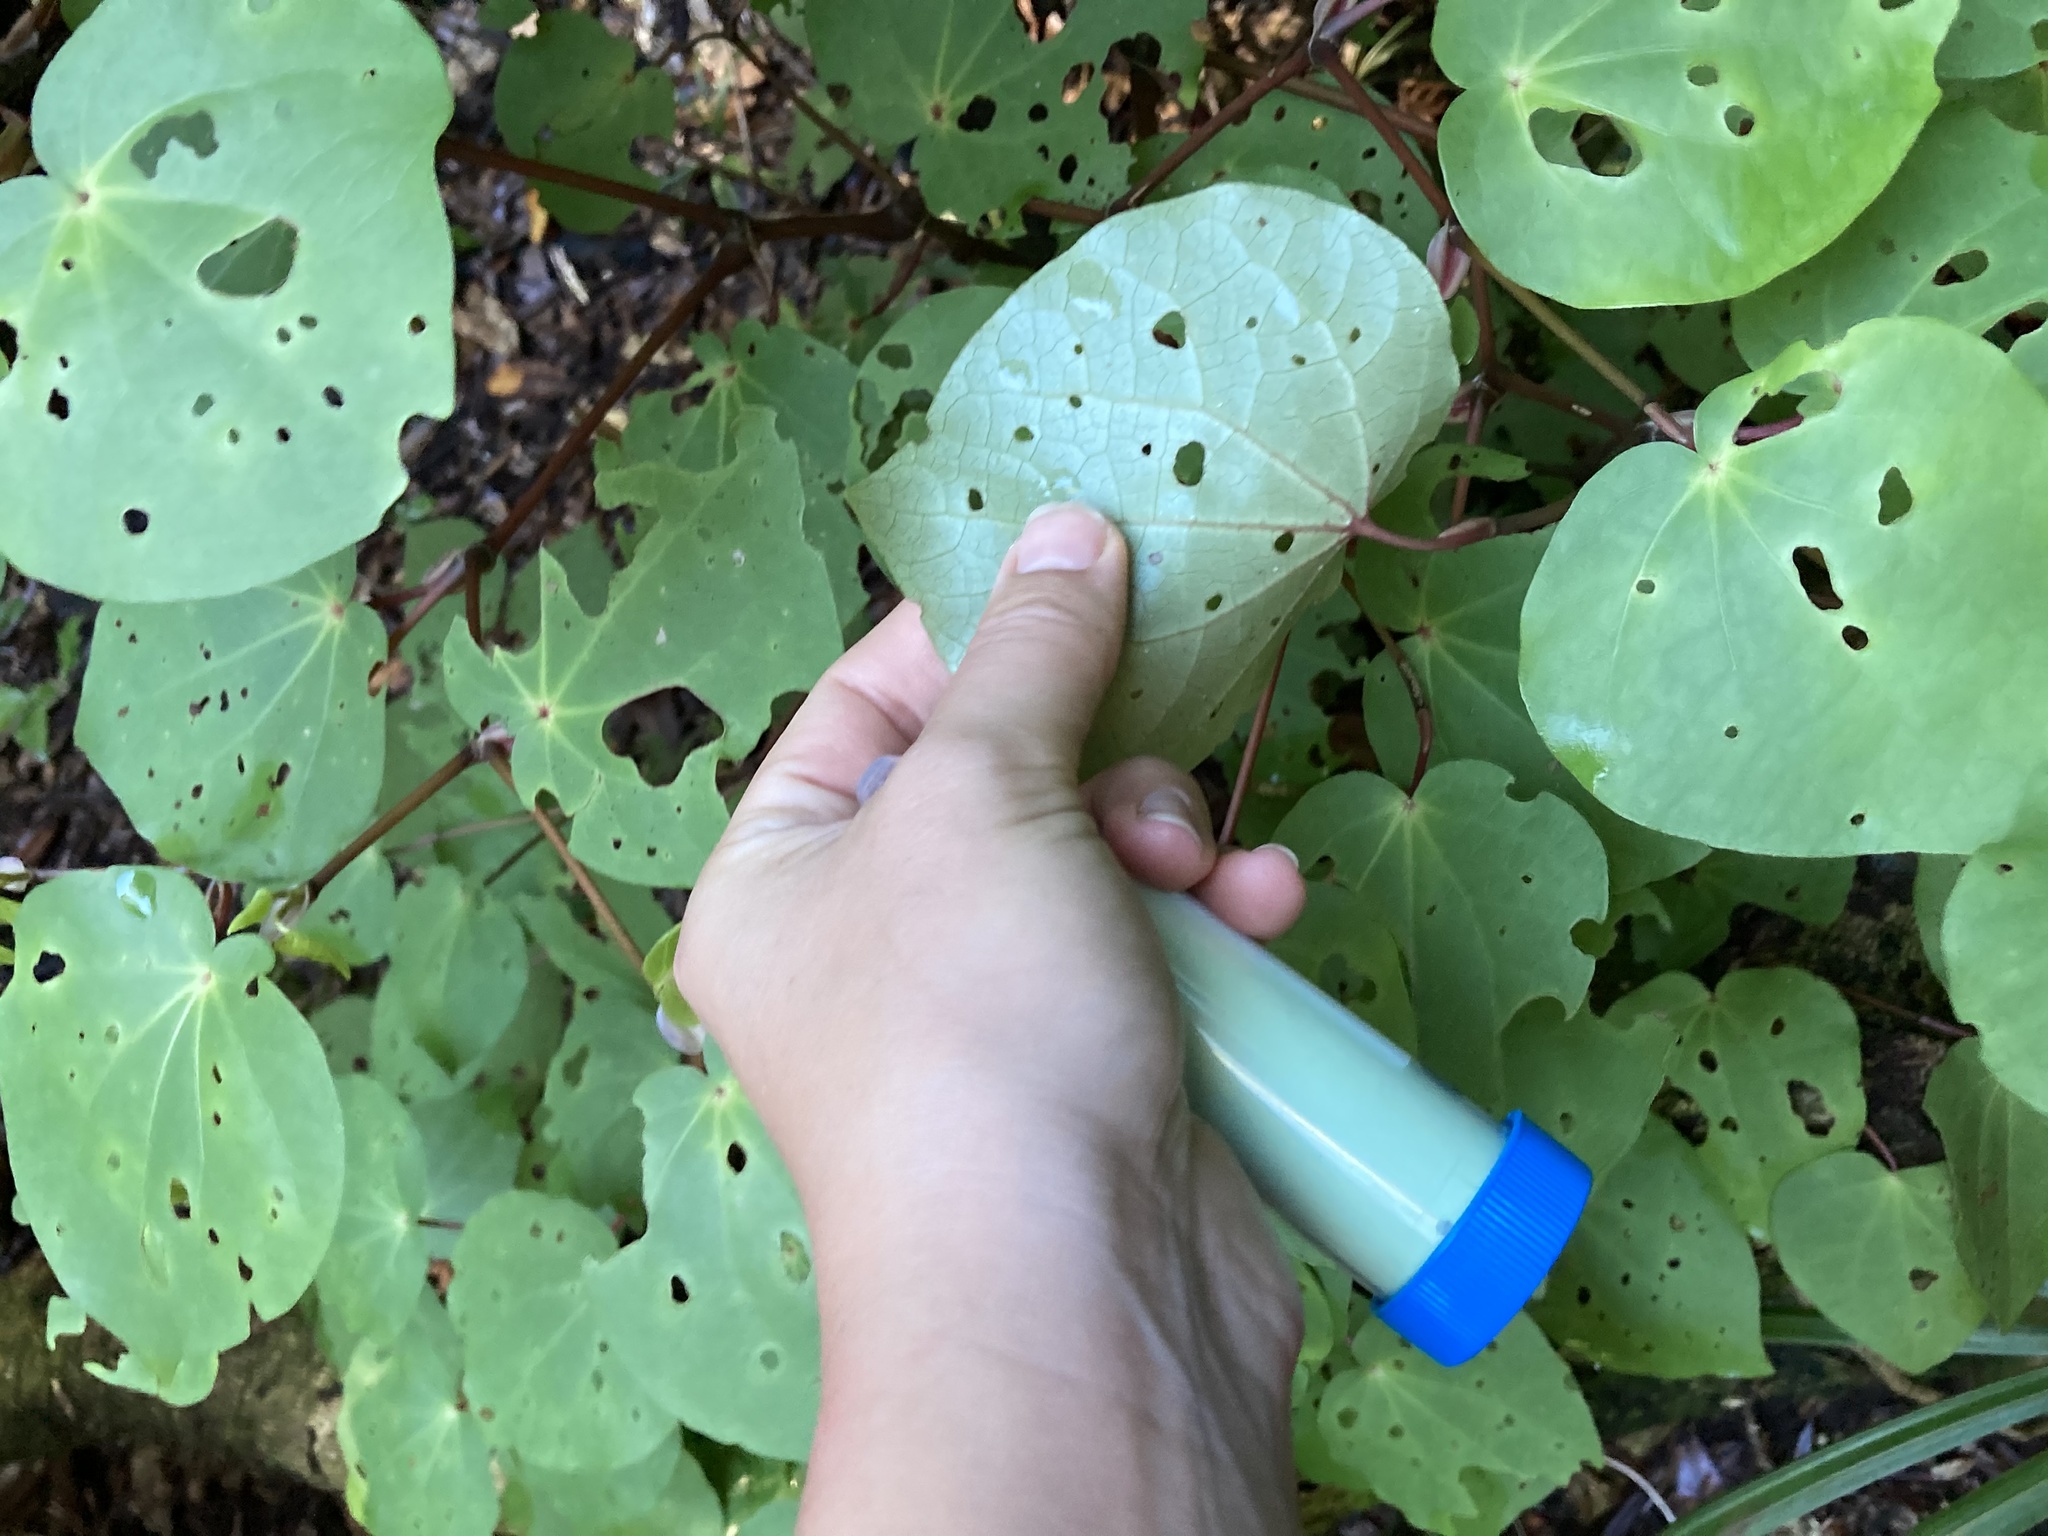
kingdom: Plantae
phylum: Tracheophyta
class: Magnoliopsida
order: Piperales
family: Piperaceae
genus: Macropiper
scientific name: Macropiper excelsum
